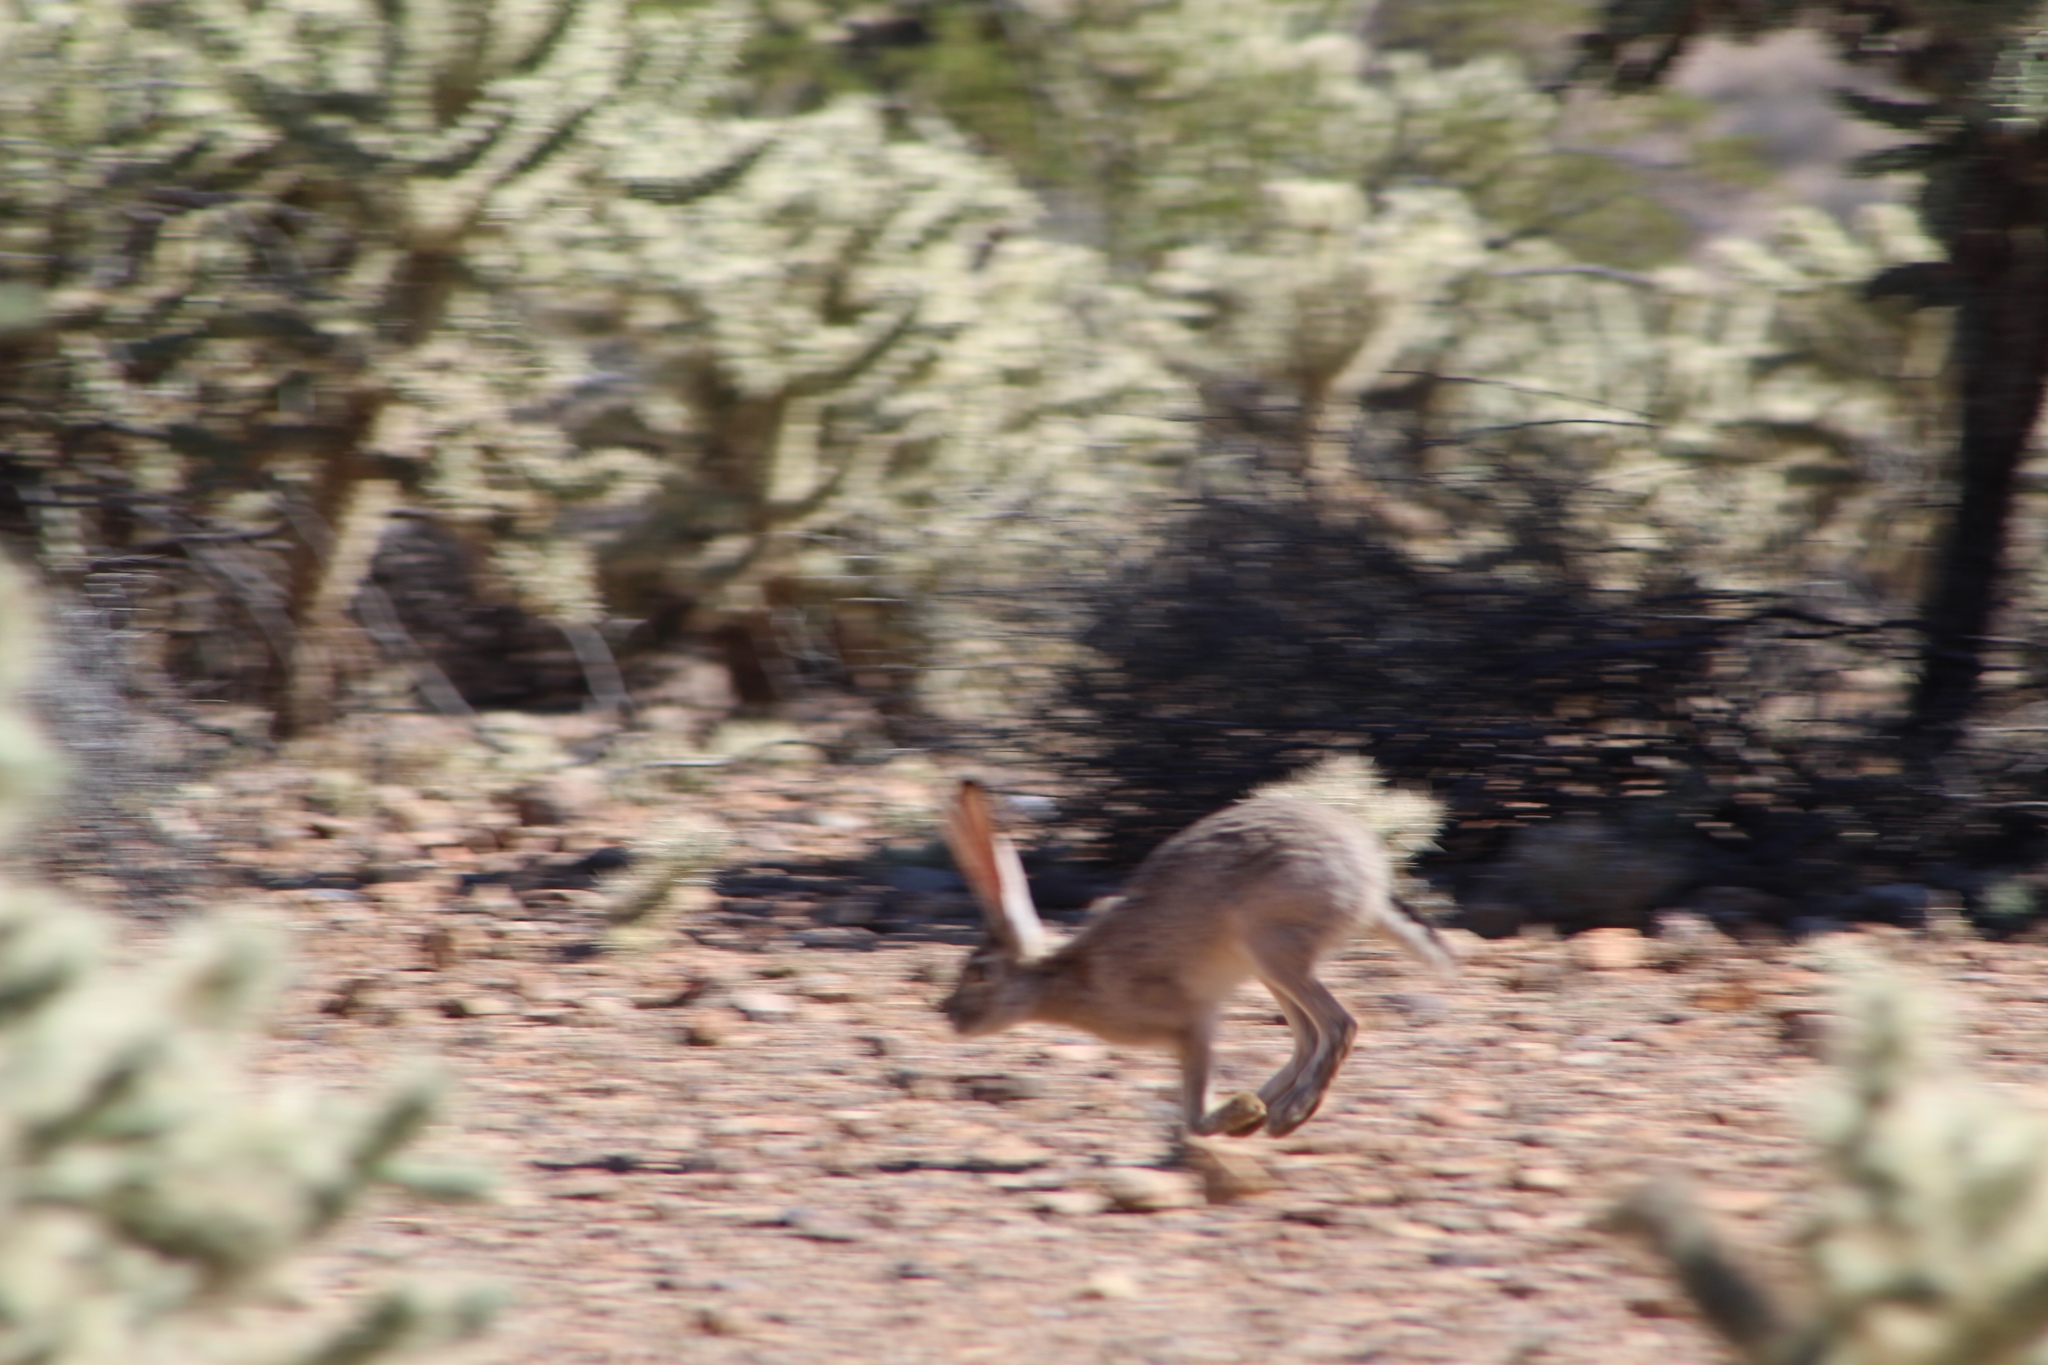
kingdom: Animalia
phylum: Chordata
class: Mammalia
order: Lagomorpha
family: Leporidae
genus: Lepus
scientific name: Lepus californicus
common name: Black-tailed jackrabbit
